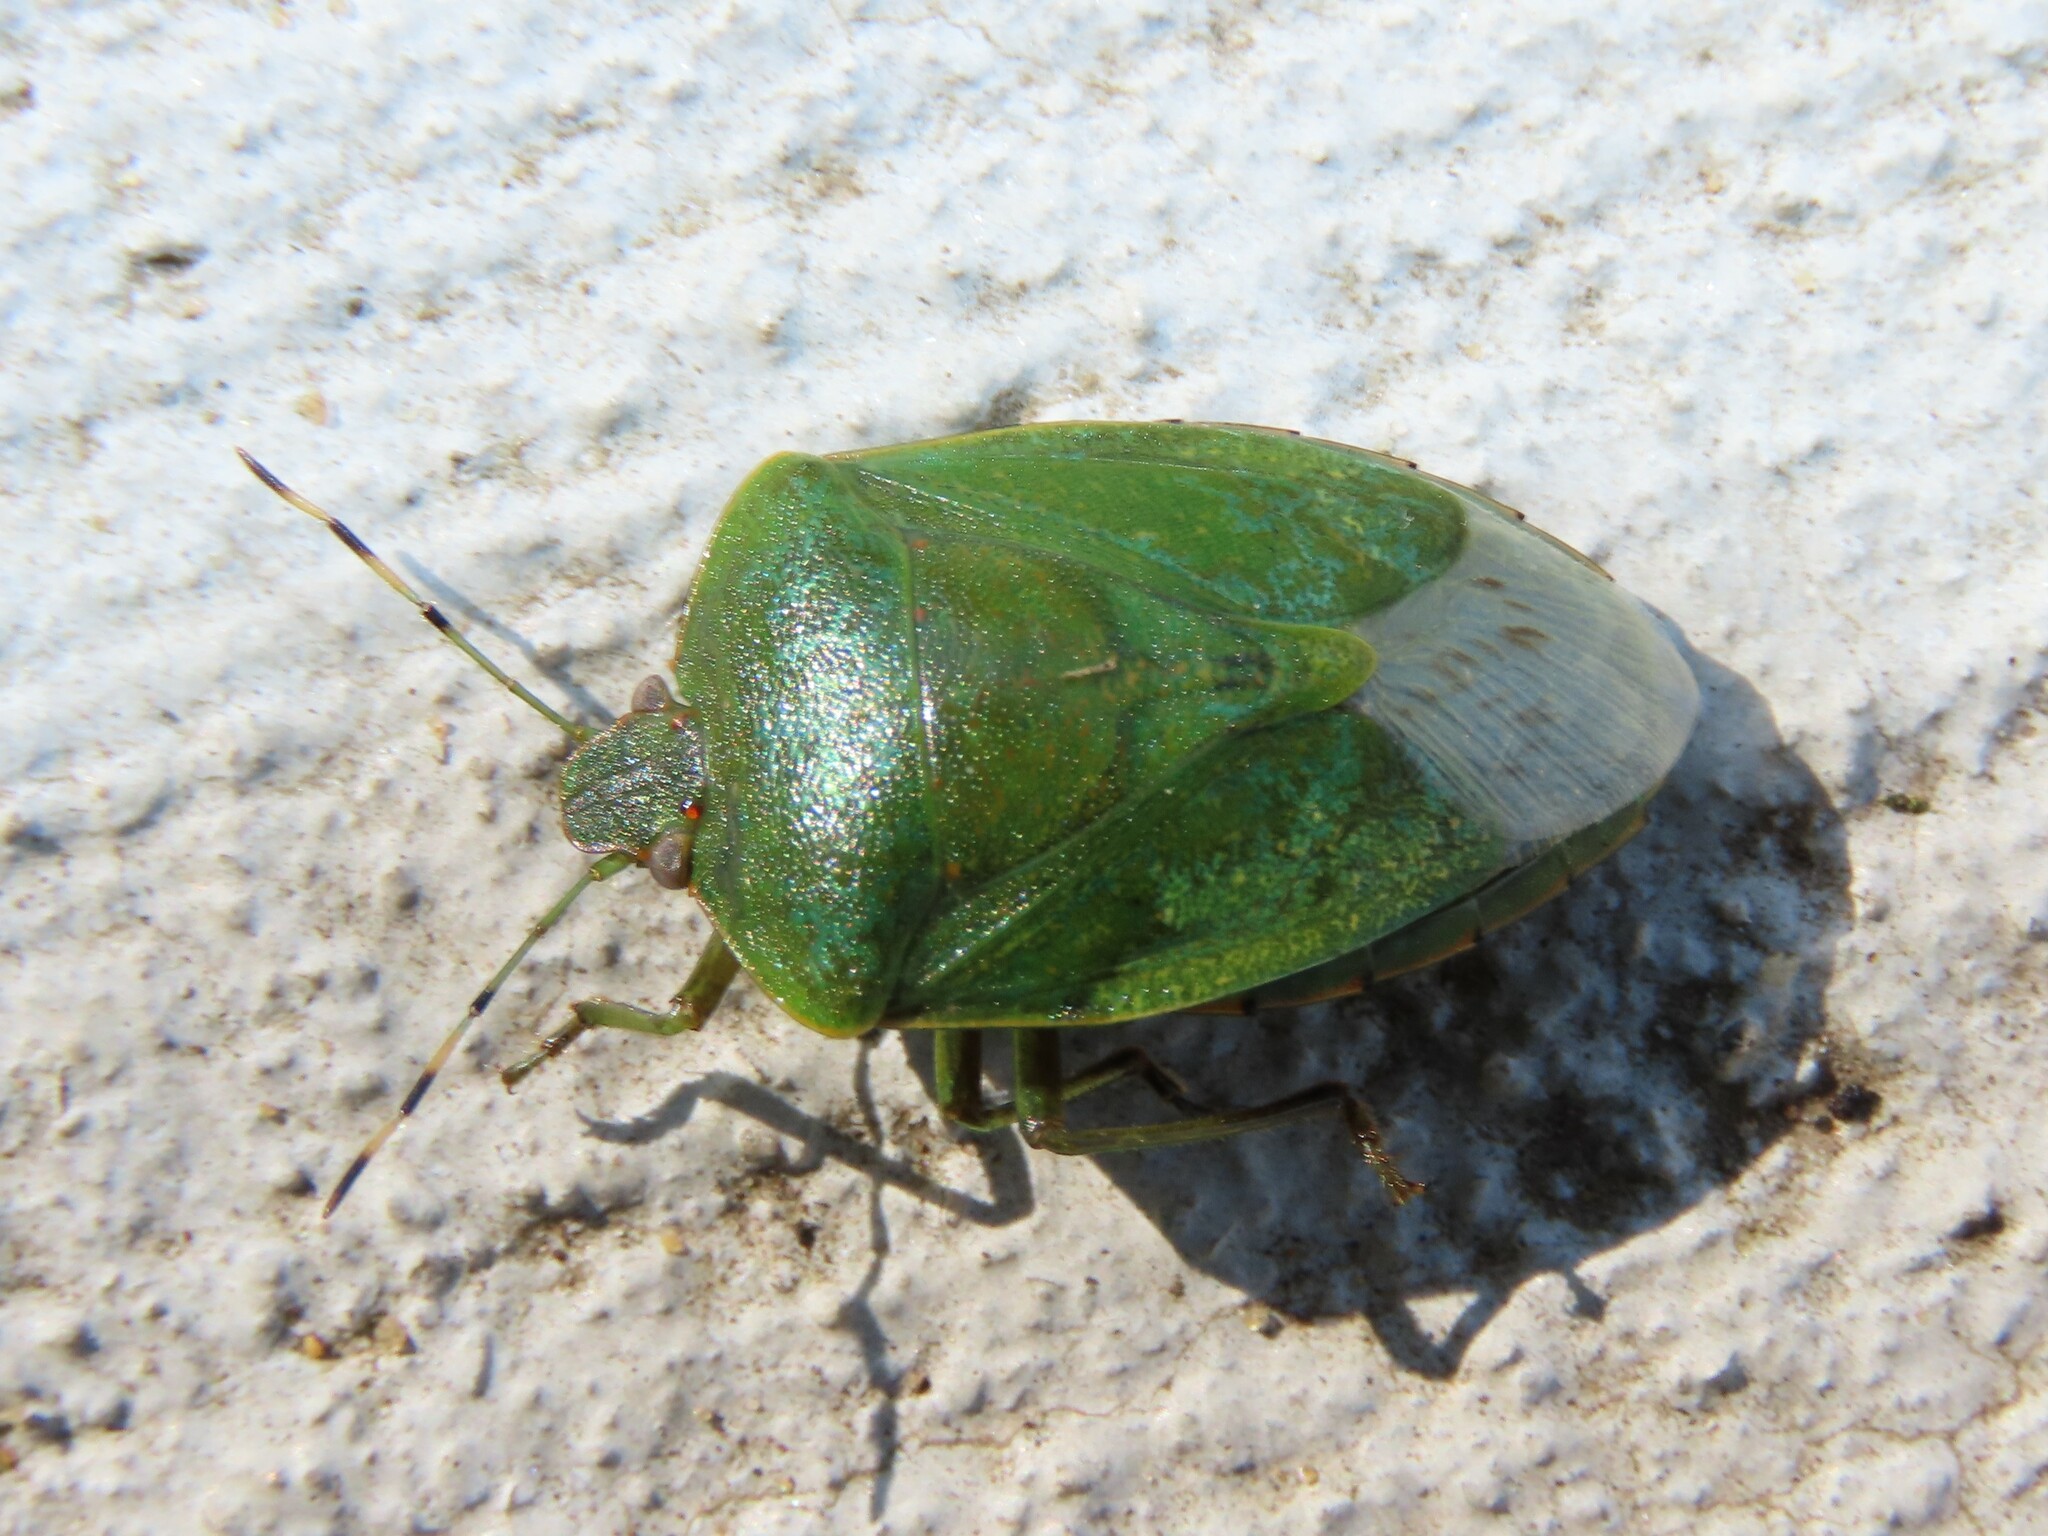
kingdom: Animalia
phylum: Arthropoda
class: Insecta
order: Hemiptera
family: Pentatomidae
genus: Chinavia
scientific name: Chinavia hilaris
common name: Green stink bug
